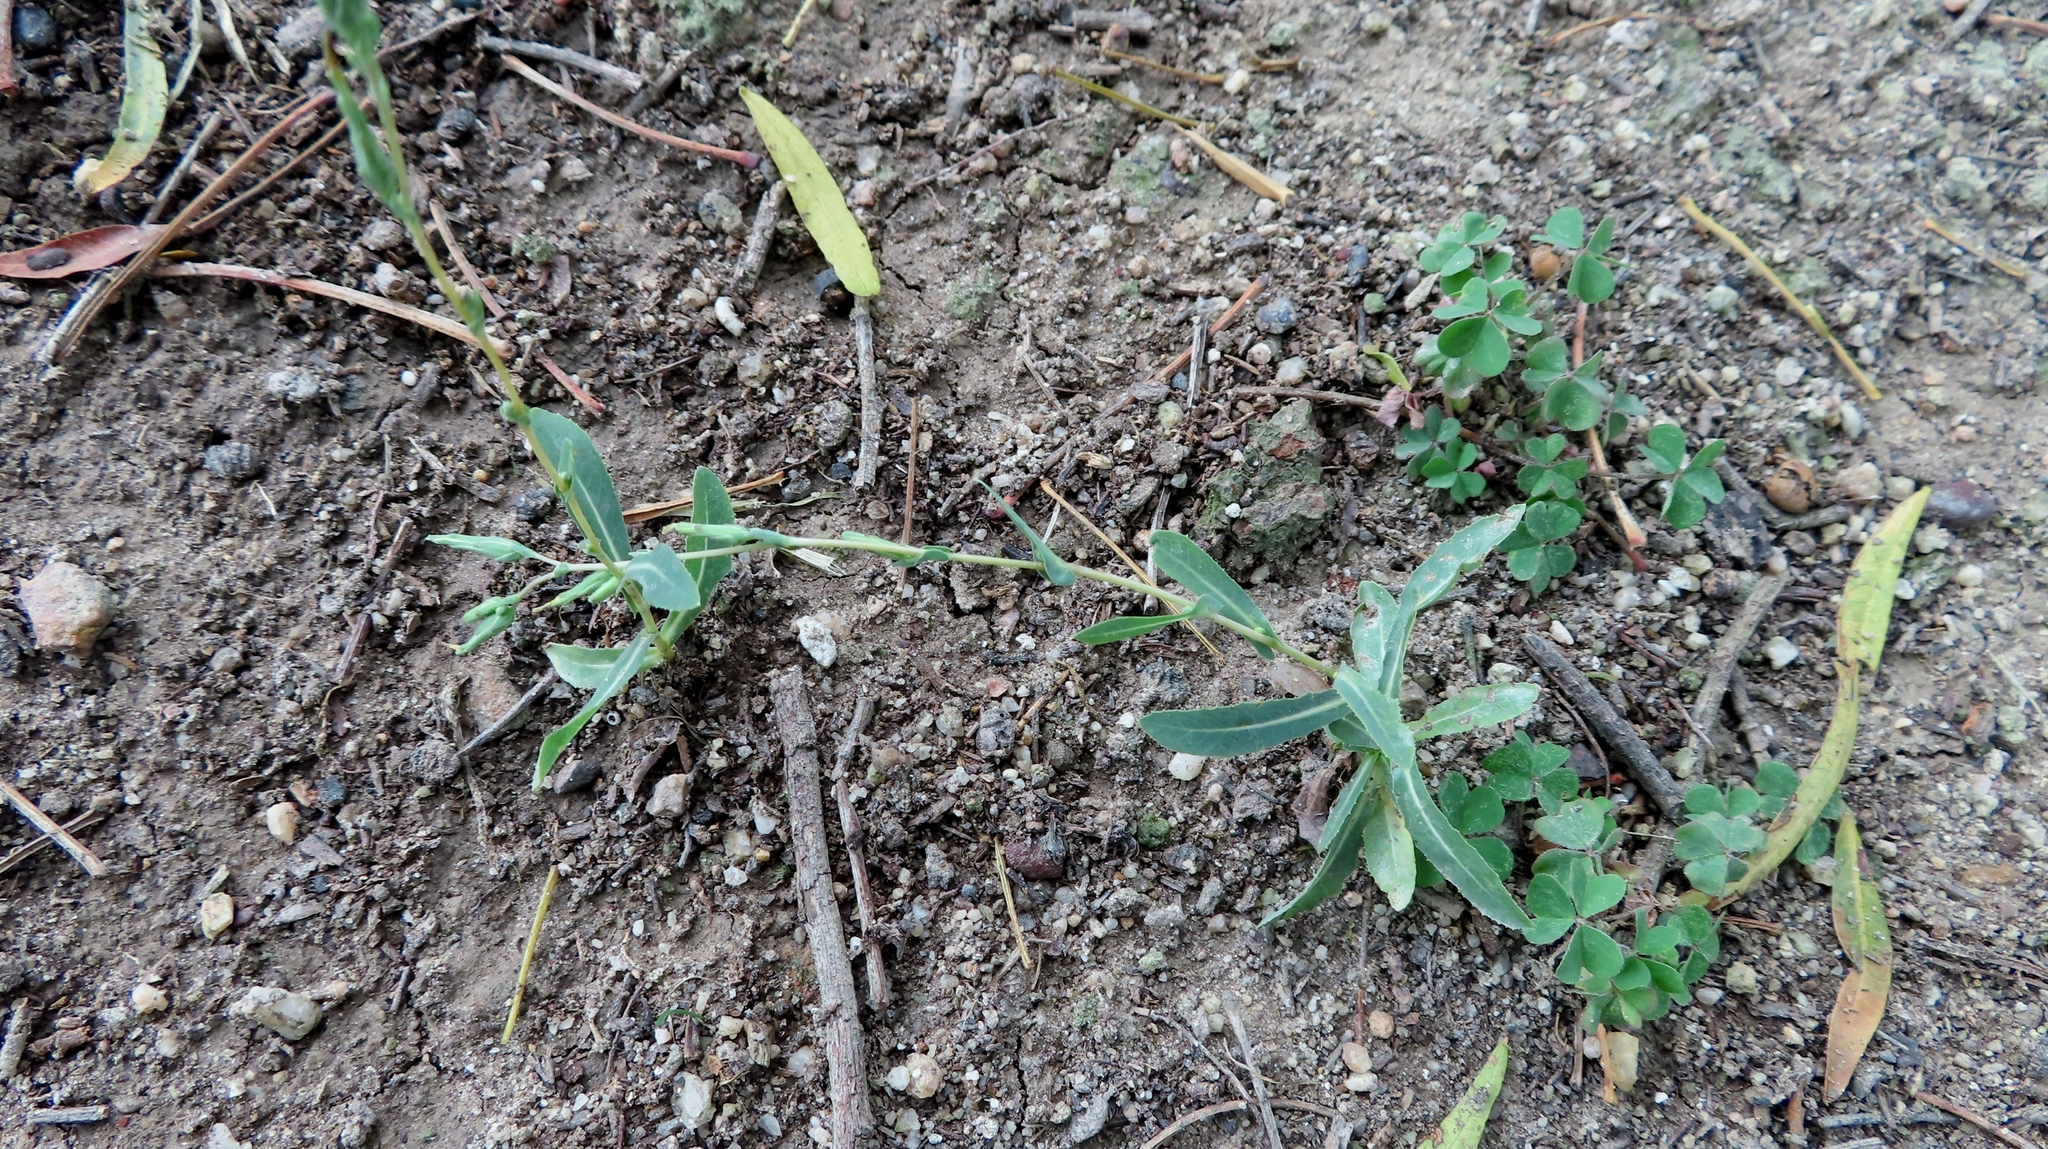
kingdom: Plantae
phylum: Tracheophyta
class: Magnoliopsida
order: Asterales
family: Asteraceae
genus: Lactuca
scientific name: Lactuca serriola
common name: Prickly lettuce
